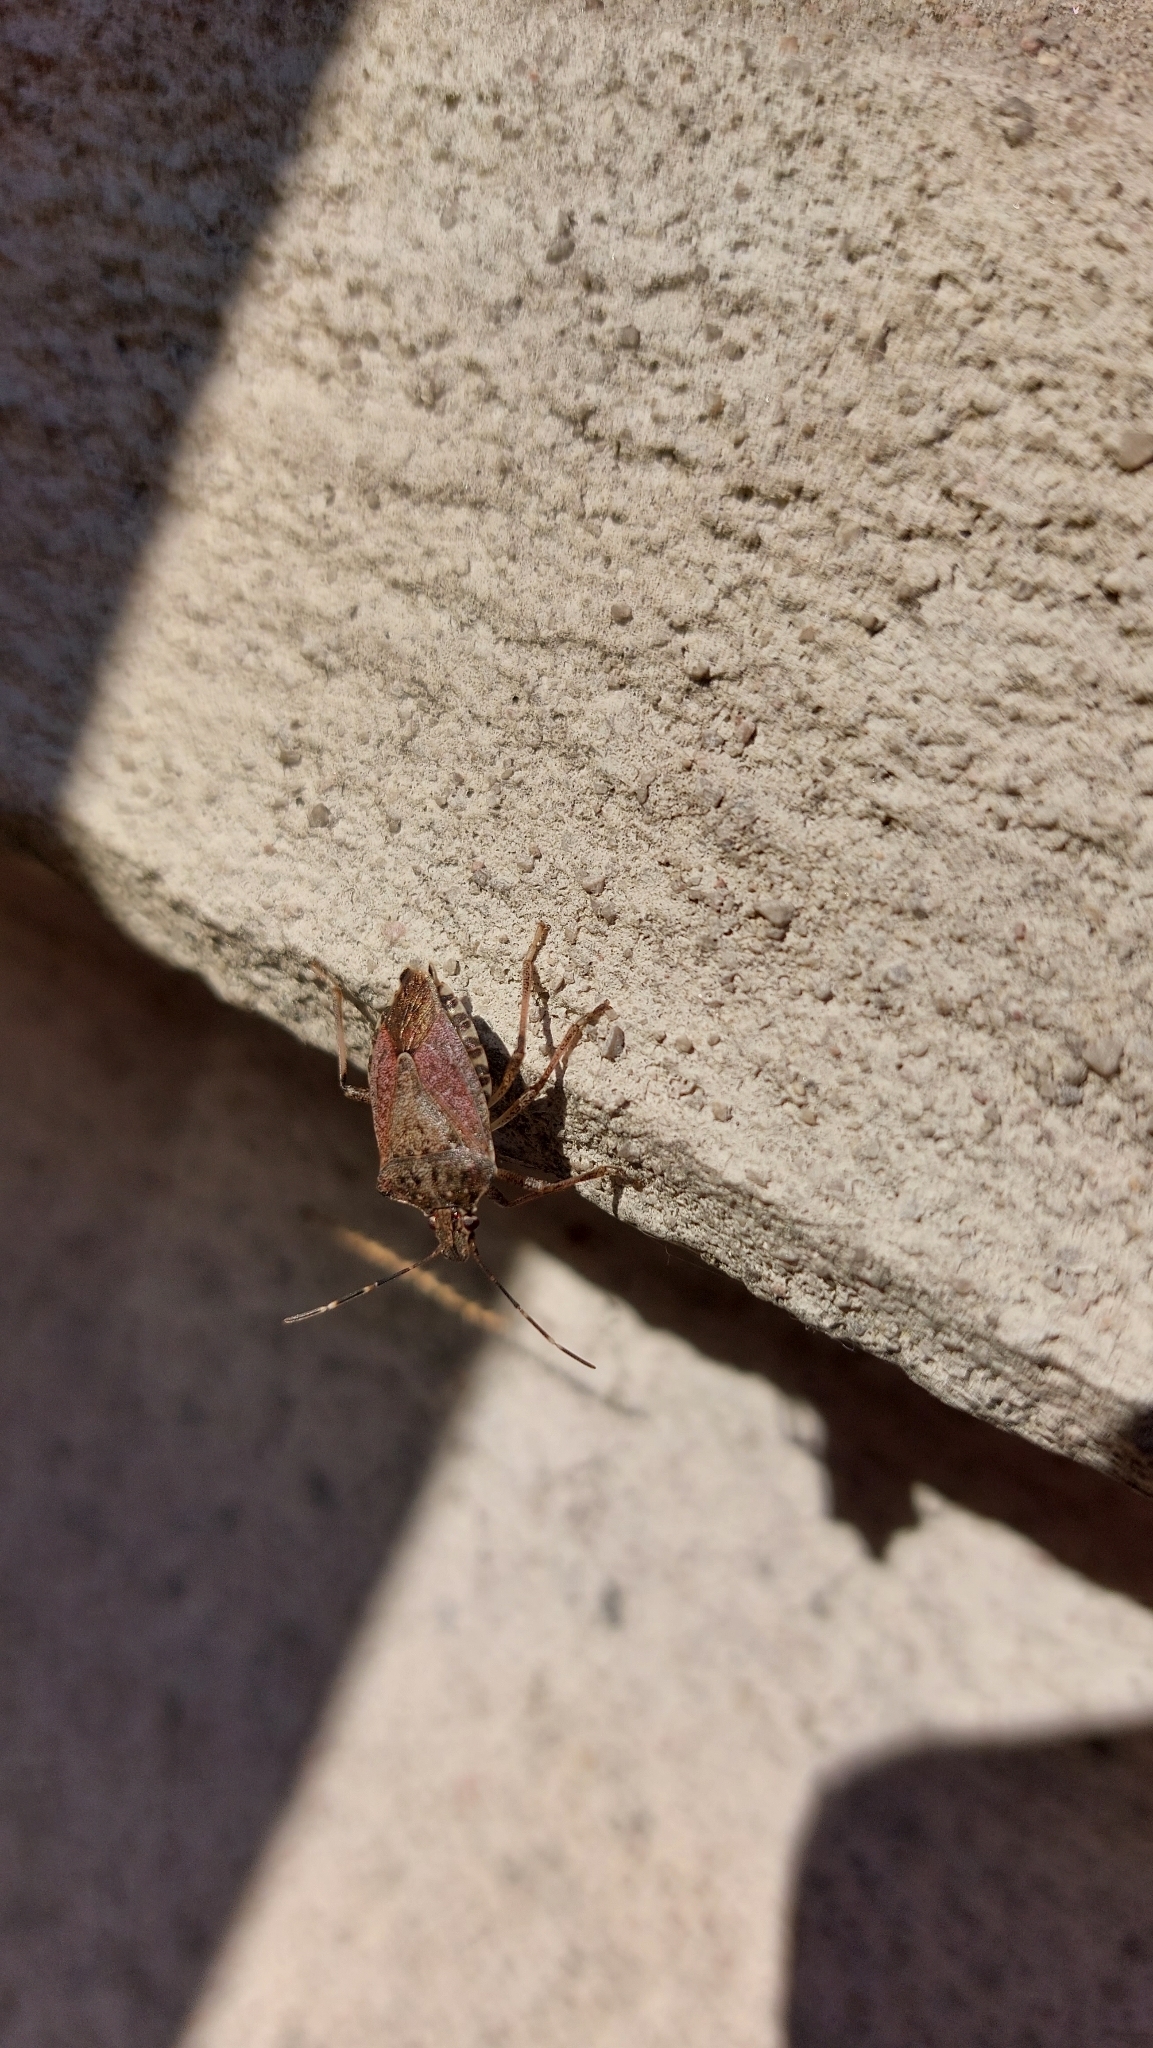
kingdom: Animalia
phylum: Arthropoda
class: Insecta
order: Hemiptera
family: Pentatomidae
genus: Halyomorpha
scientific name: Halyomorpha halys
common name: Brown marmorated stink bug
